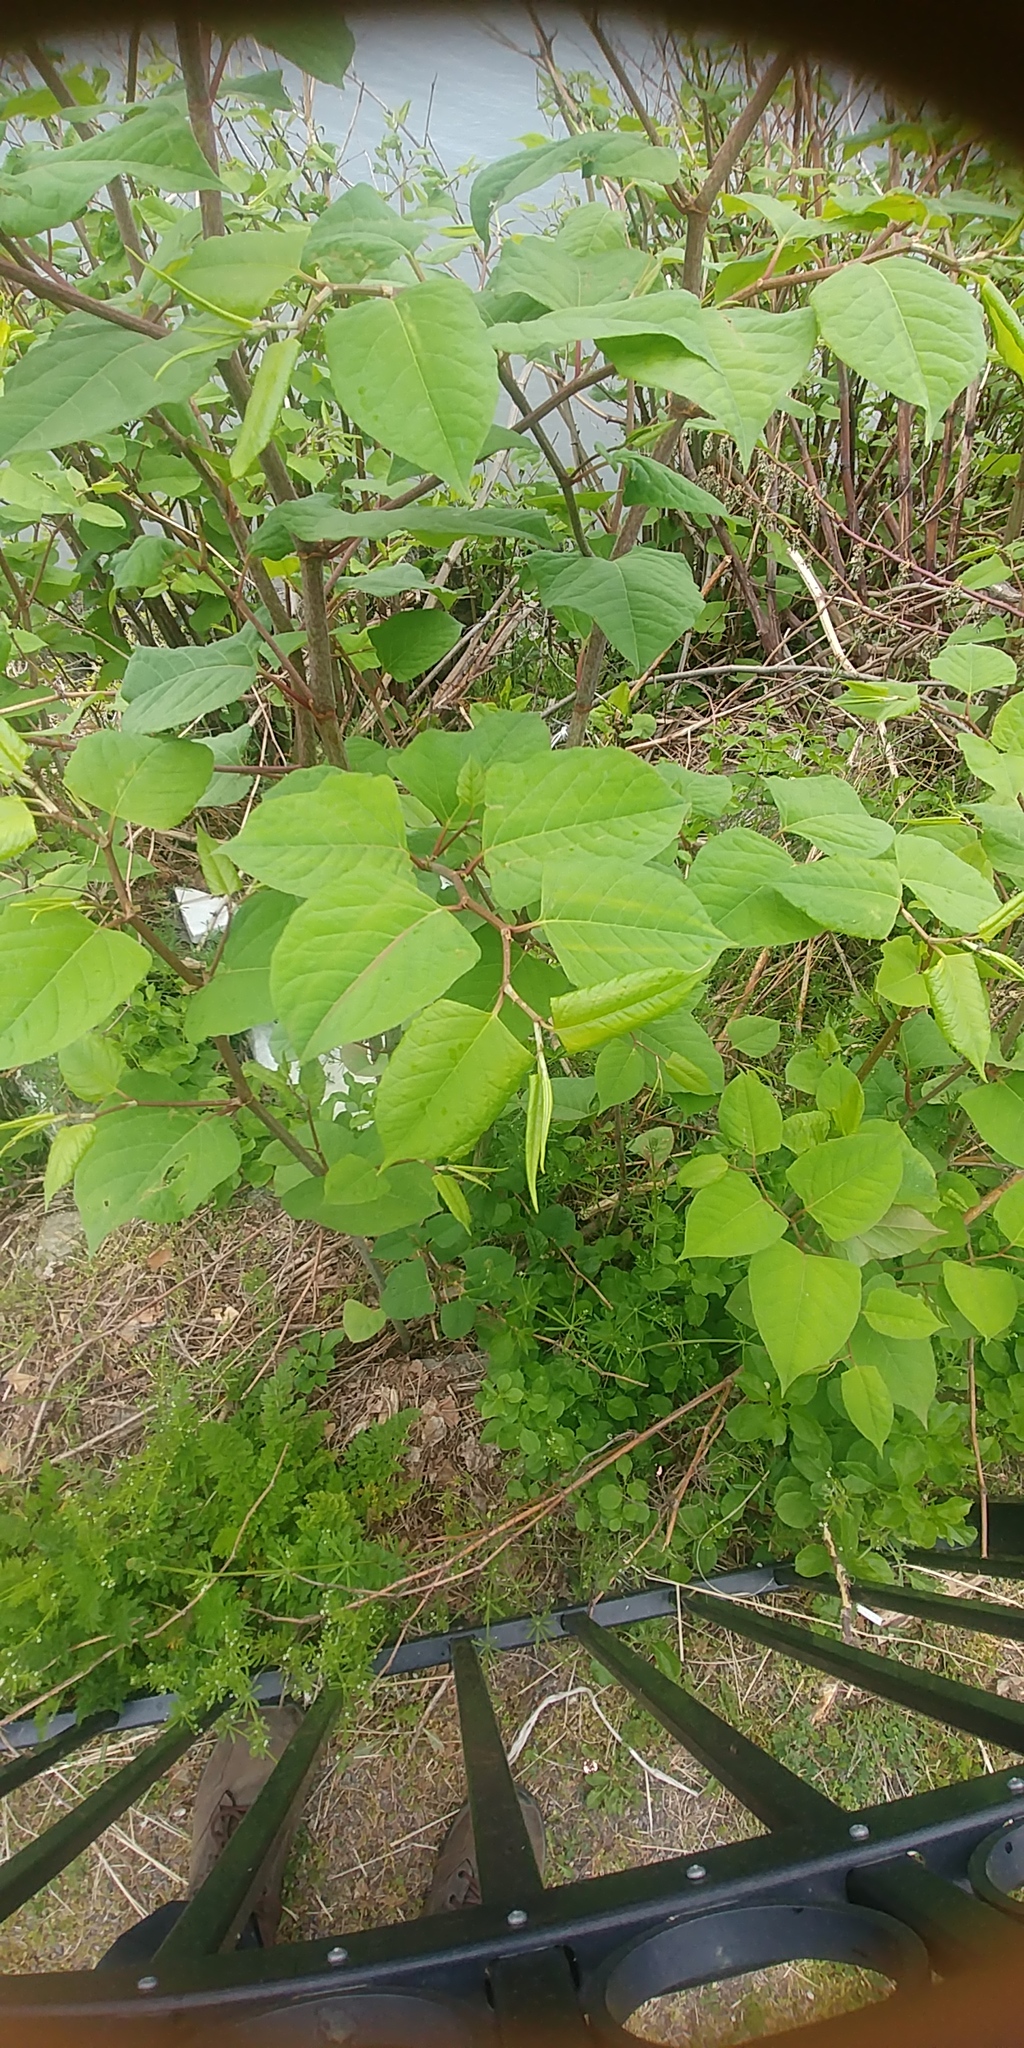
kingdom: Plantae
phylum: Tracheophyta
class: Magnoliopsida
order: Caryophyllales
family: Polygonaceae
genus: Reynoutria
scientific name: Reynoutria japonica
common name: Japanese knotweed
